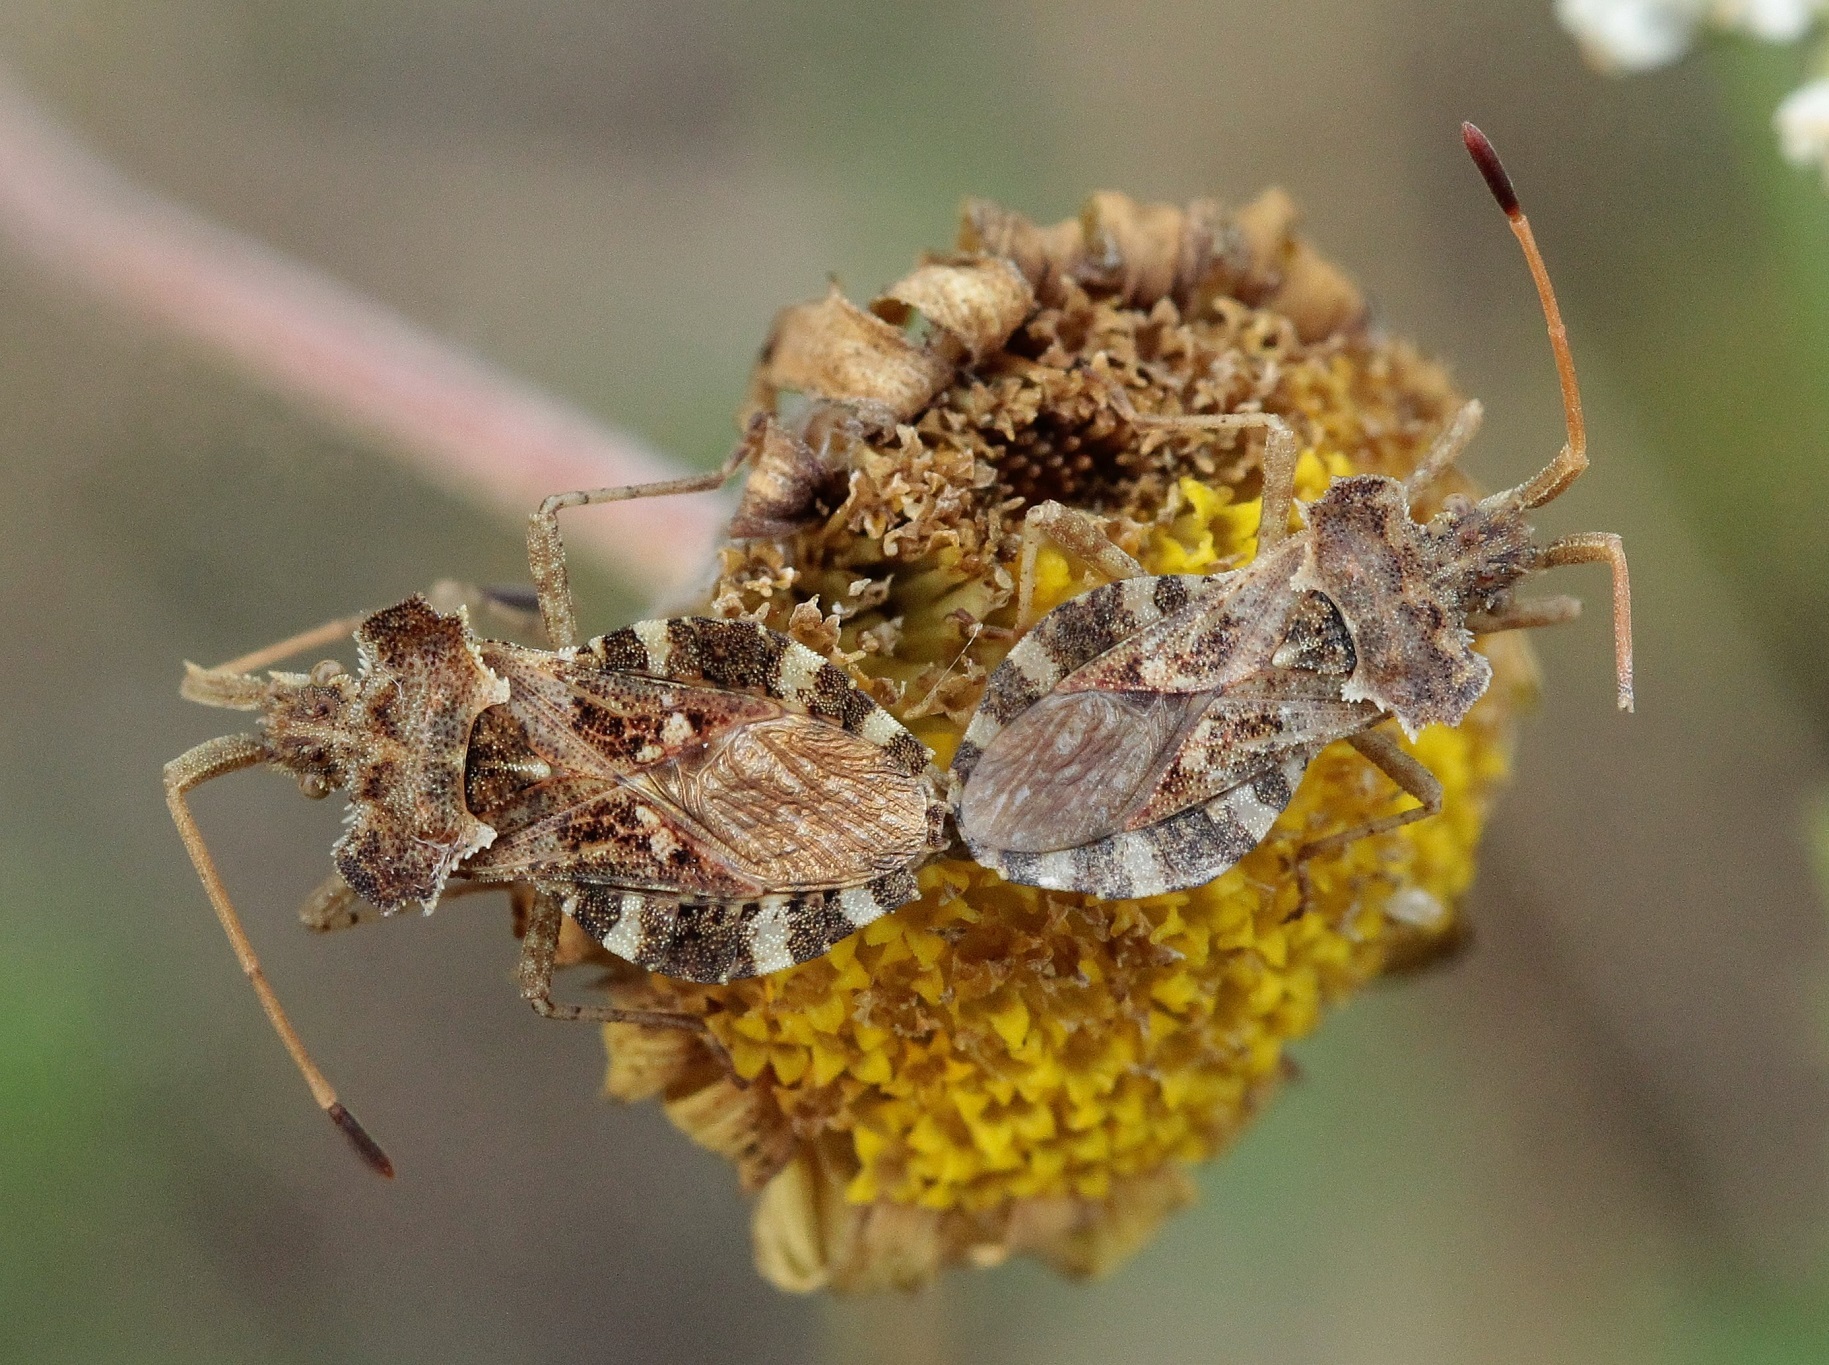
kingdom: Animalia
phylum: Arthropoda
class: Insecta
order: Hemiptera
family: Coreidae
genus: Centrocoris
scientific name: Centrocoris spiniger
